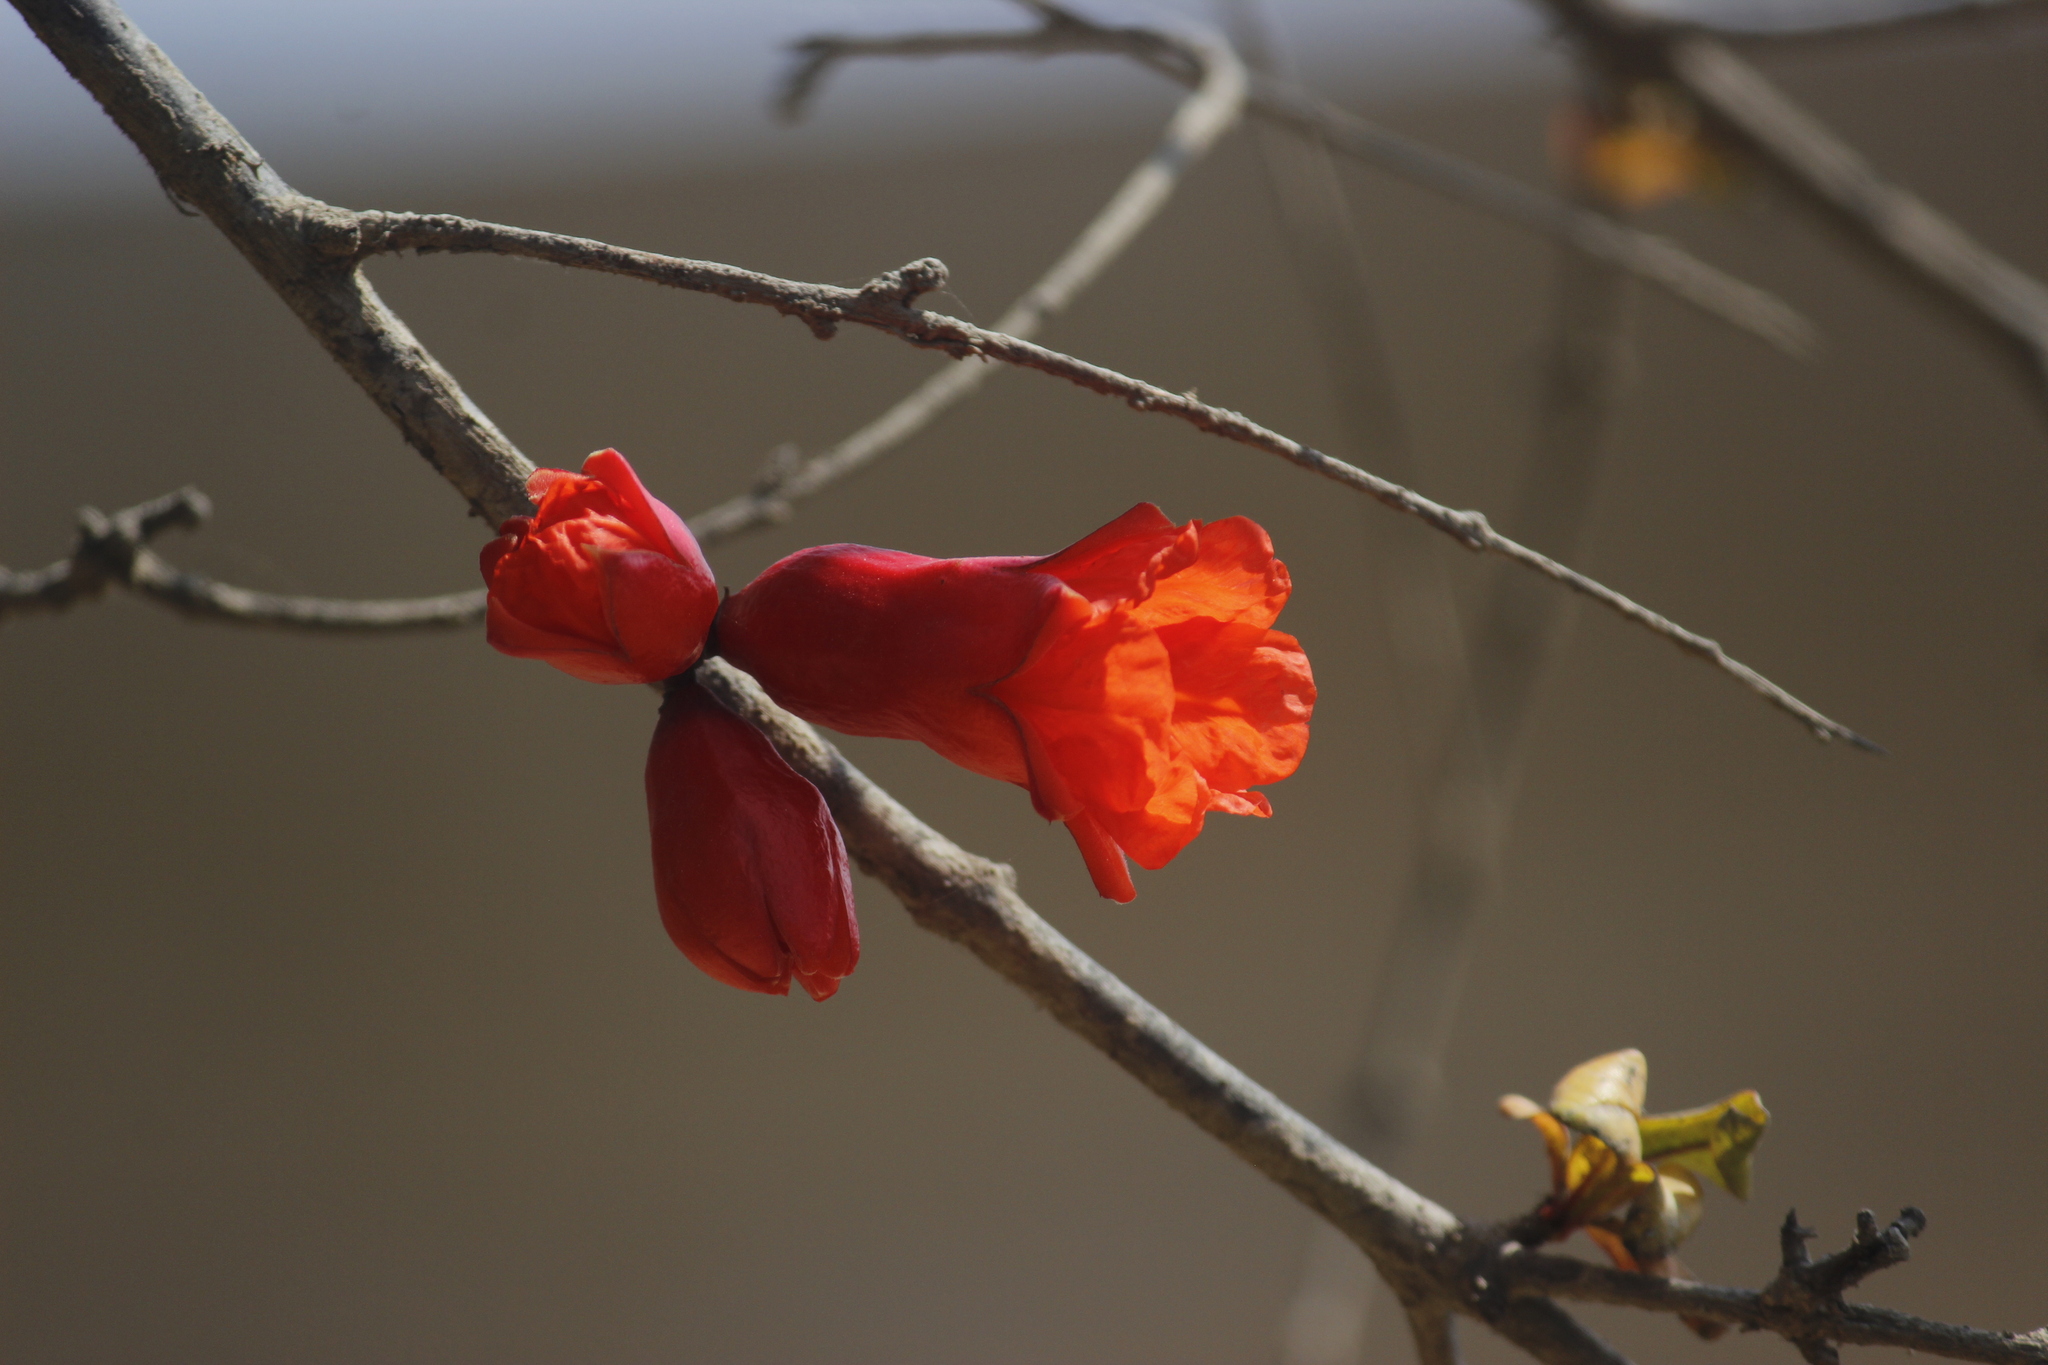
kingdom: Plantae
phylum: Tracheophyta
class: Magnoliopsida
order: Myrtales
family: Lythraceae
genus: Punica
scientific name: Punica granatum
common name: Pomegranate
